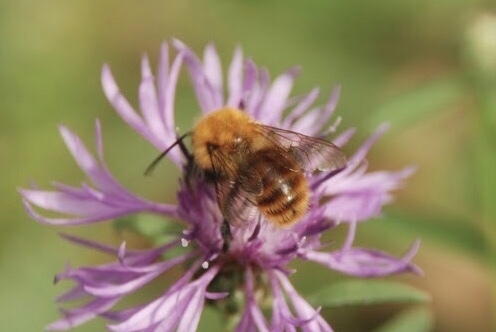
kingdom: Animalia
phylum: Arthropoda
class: Insecta
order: Hymenoptera
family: Apidae
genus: Bombus
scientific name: Bombus pascuorum
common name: Common carder bee
